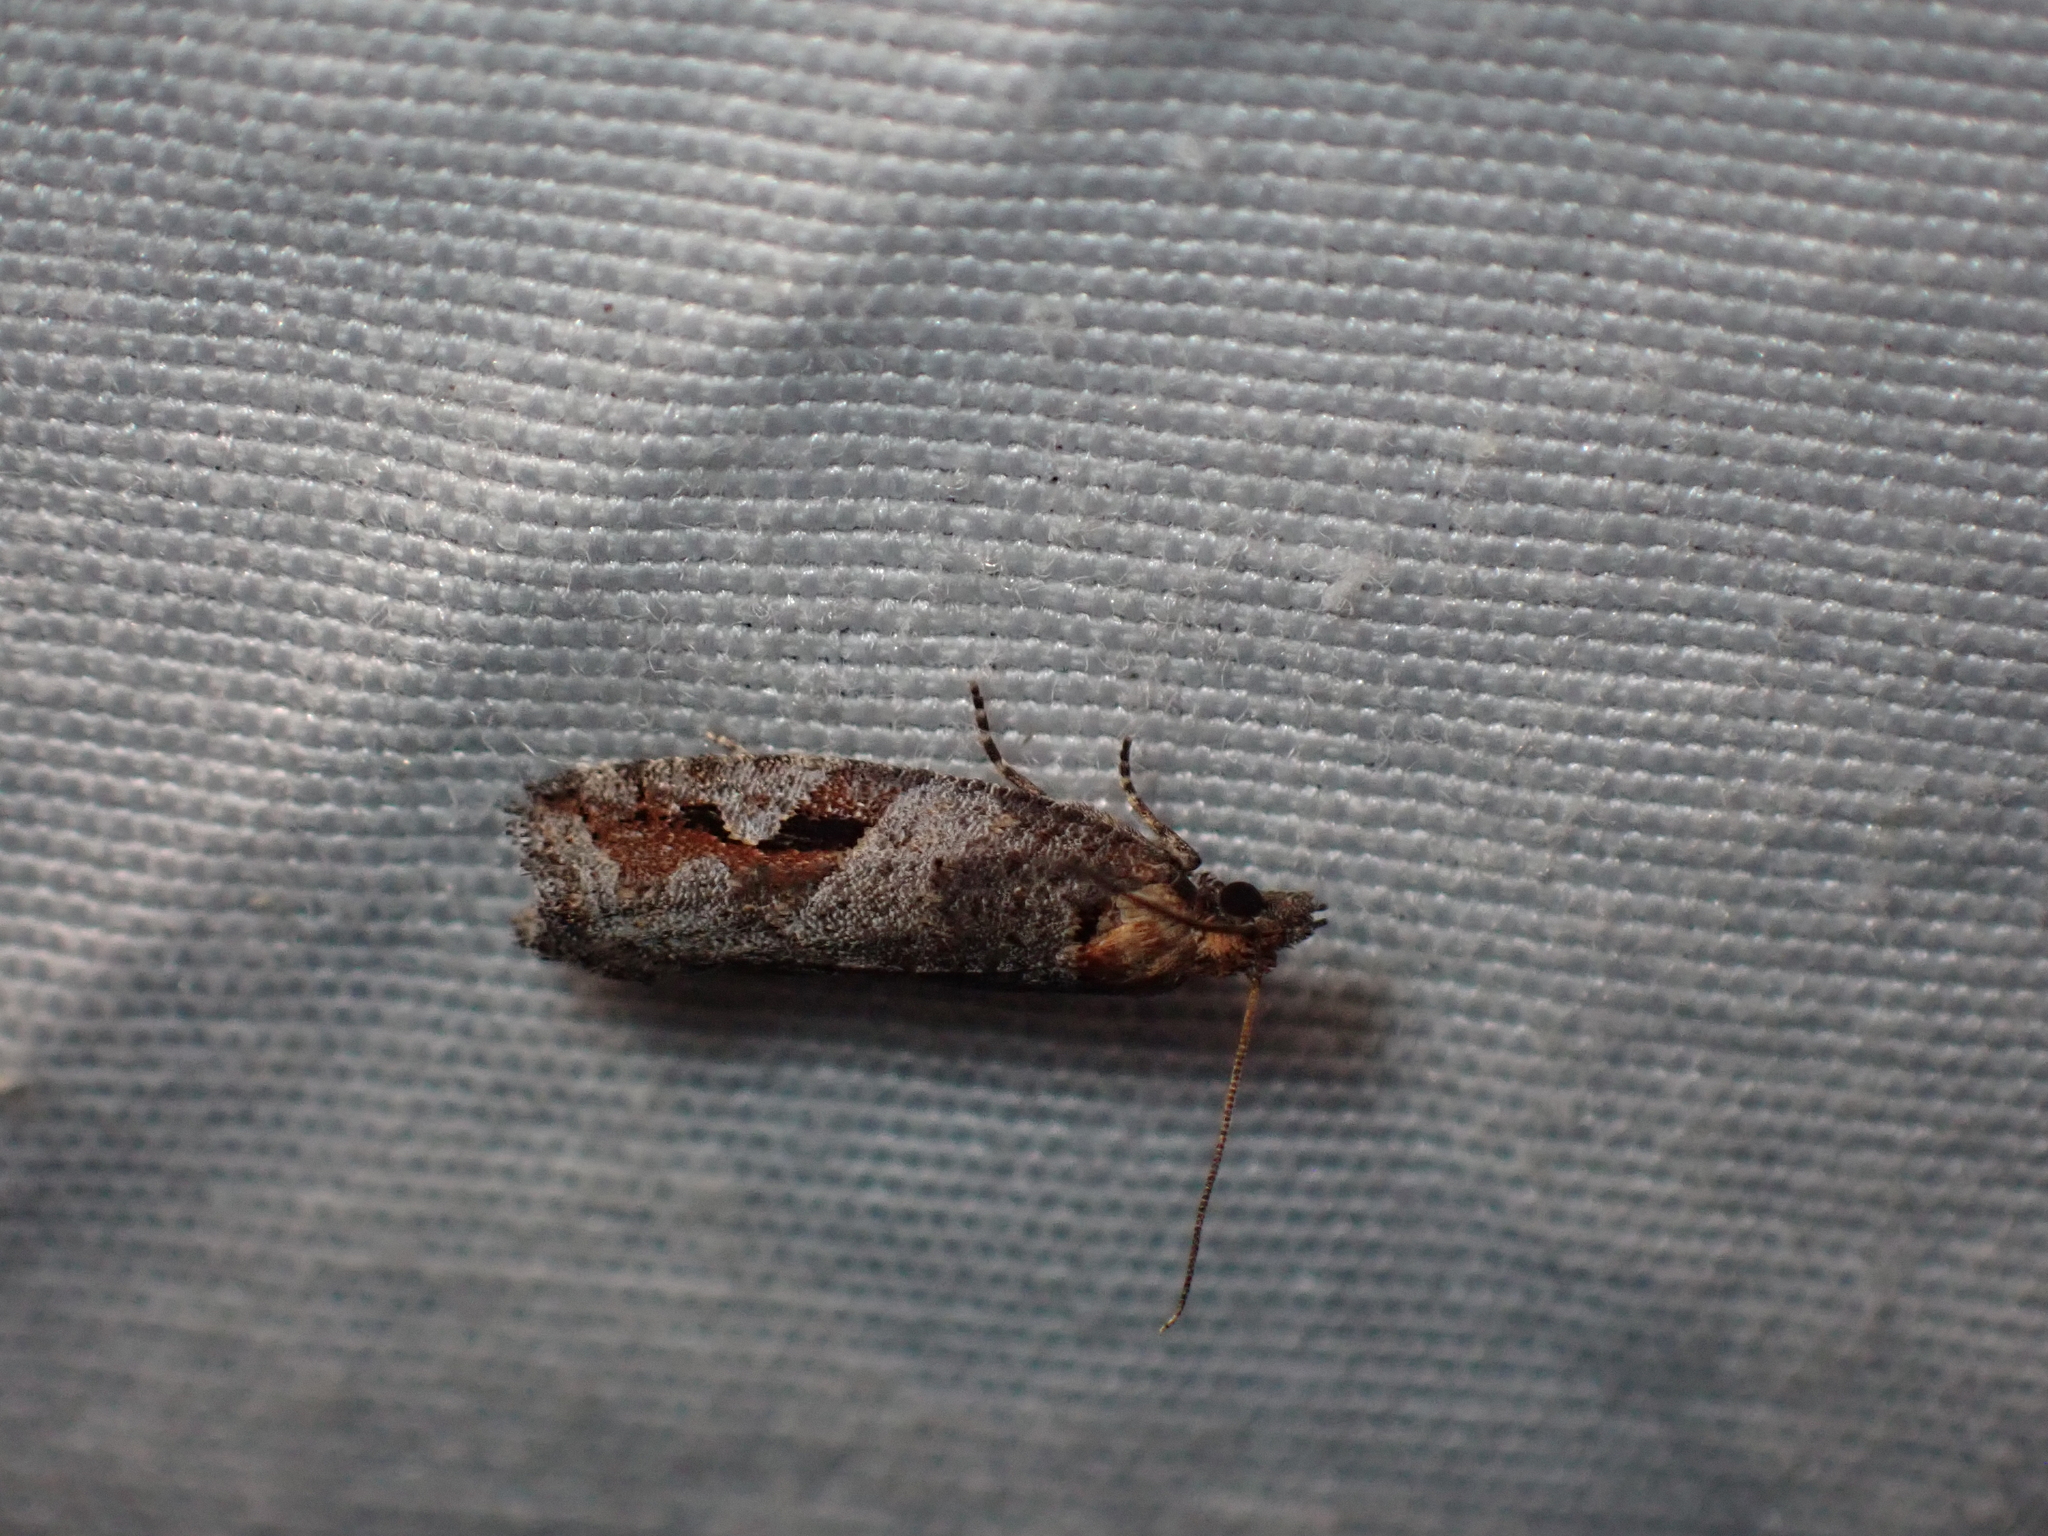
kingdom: Animalia
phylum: Arthropoda
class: Insecta
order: Lepidoptera
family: Tortricidae
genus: Epinotia
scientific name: Epinotia signiferana
